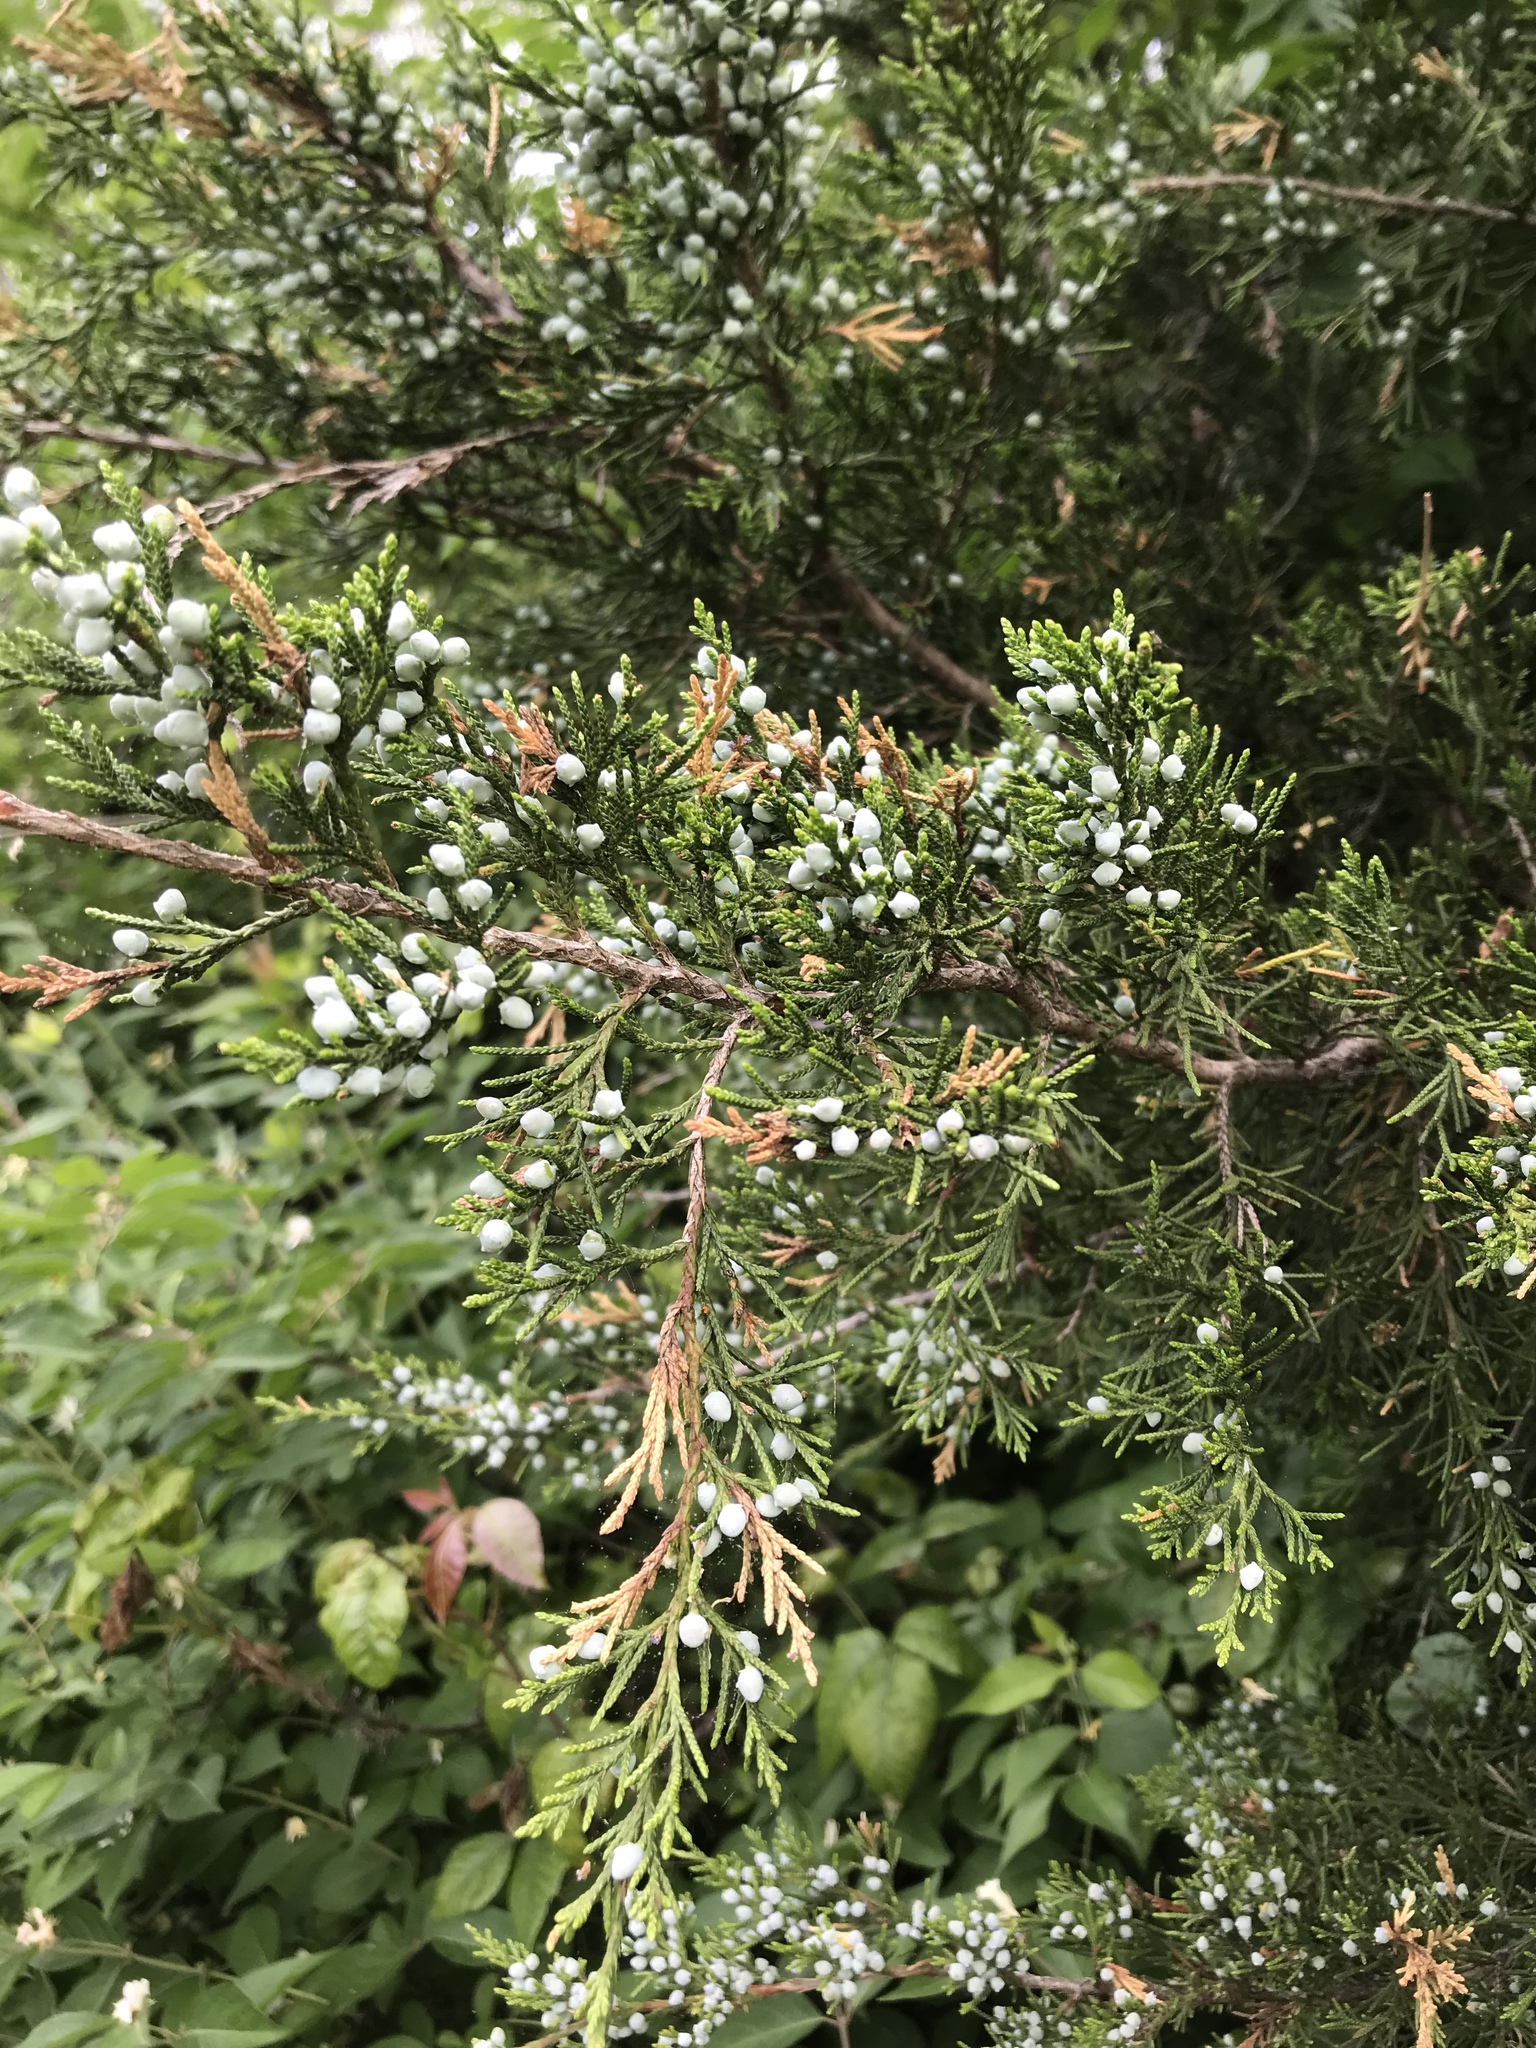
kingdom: Plantae
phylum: Tracheophyta
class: Pinopsida
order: Pinales
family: Cupressaceae
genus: Juniperus
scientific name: Juniperus virginiana
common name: Red juniper
